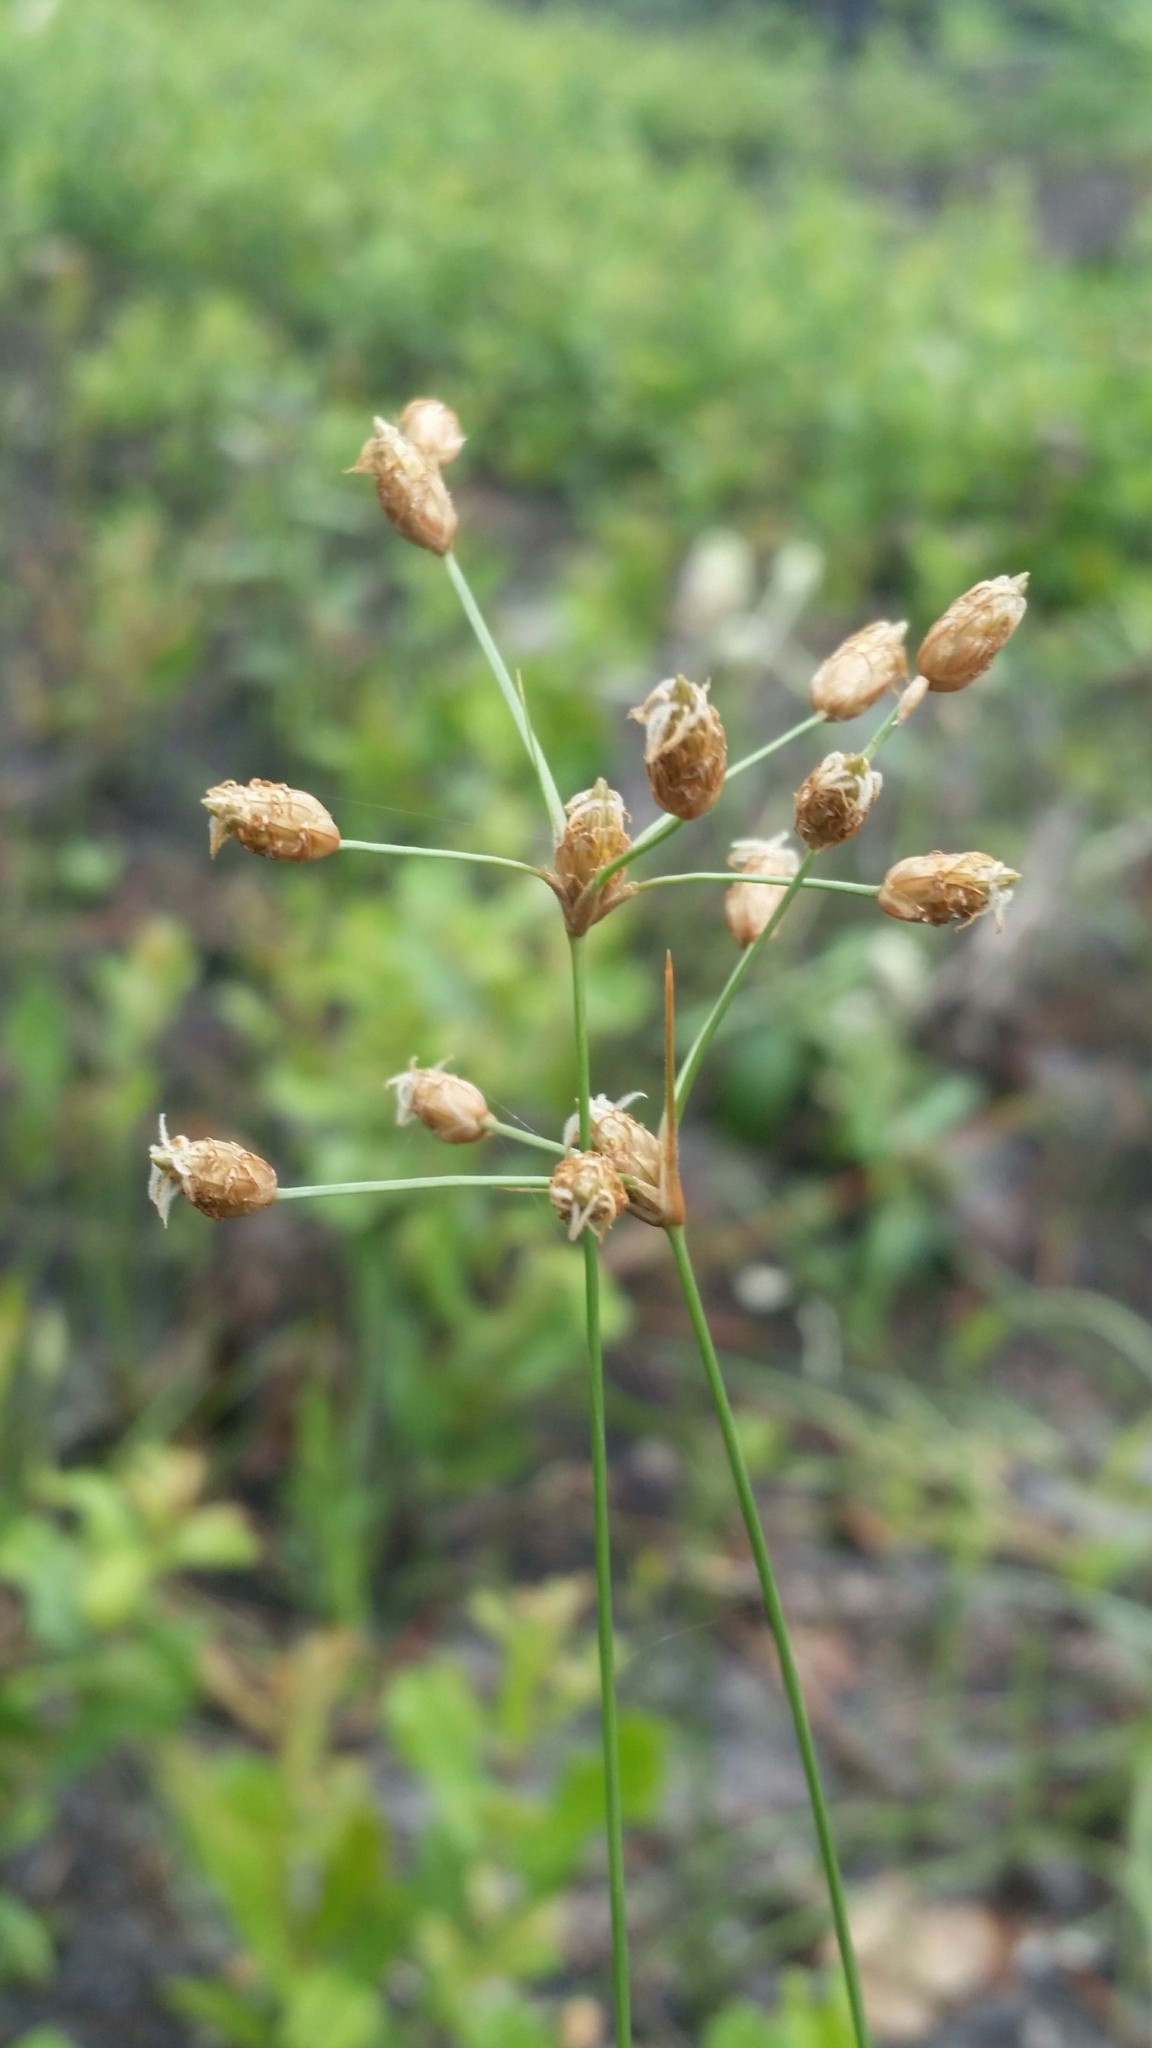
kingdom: Plantae
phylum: Tracheophyta
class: Liliopsida
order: Poales
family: Cyperaceae
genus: Fimbristylis
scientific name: Fimbristylis puberula
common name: Hairy fimbristylis
